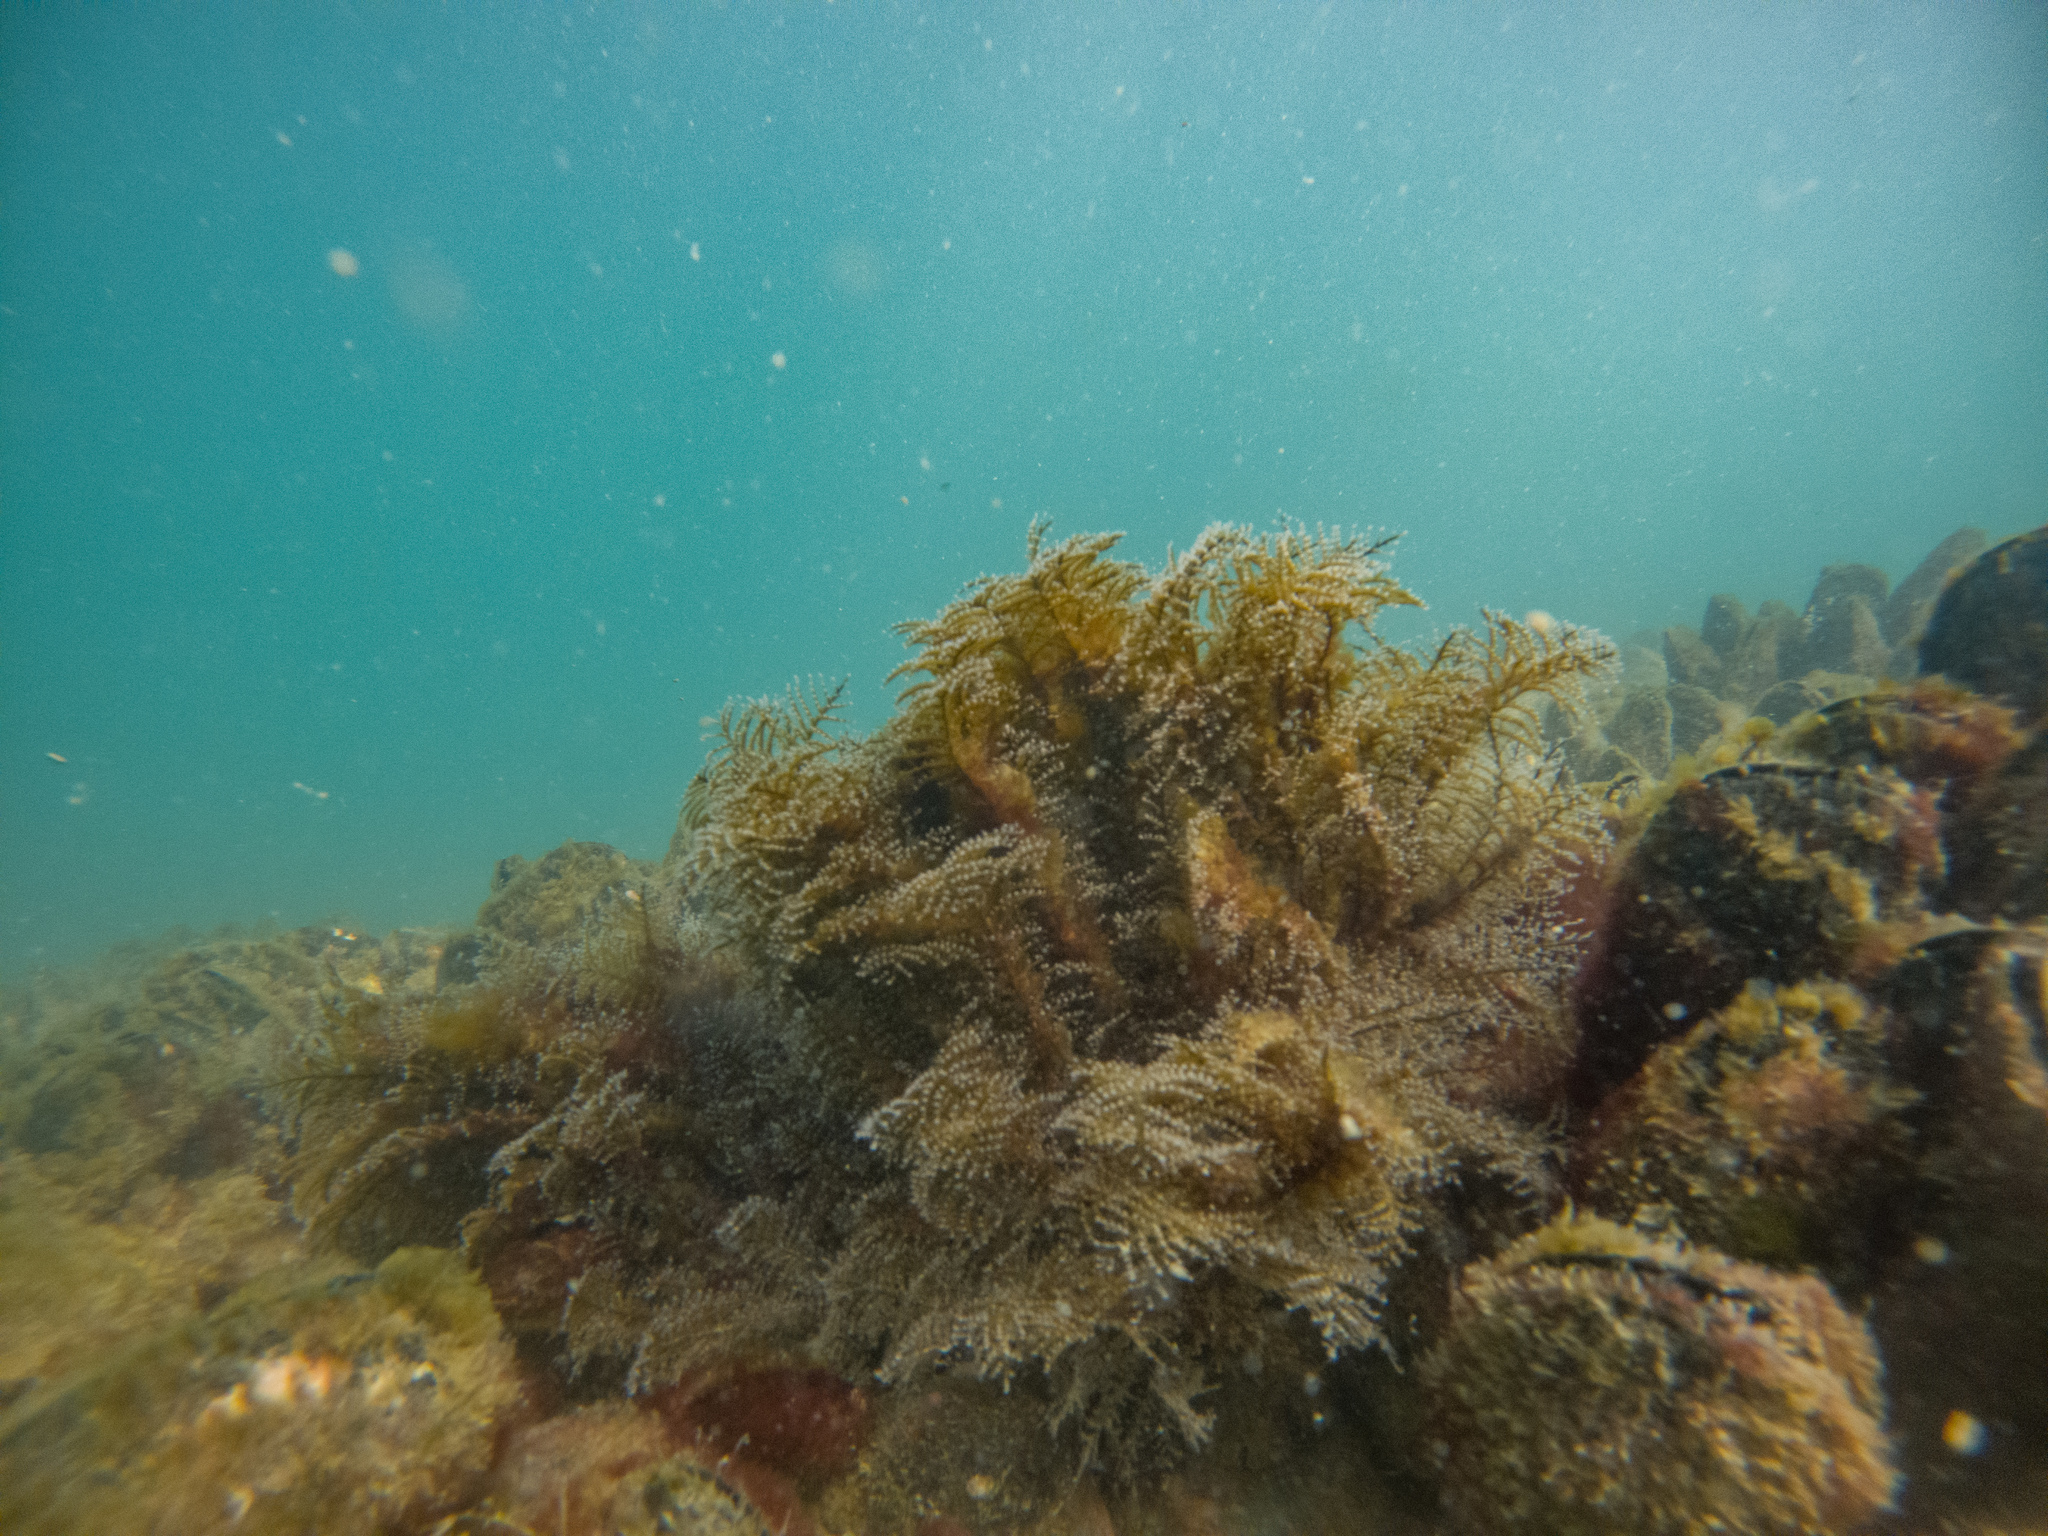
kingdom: Animalia
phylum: Cnidaria
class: Hydrozoa
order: Anthoathecata
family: Pennariidae
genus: Pennaria
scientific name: Pennaria disticha
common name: Feather hydroid
